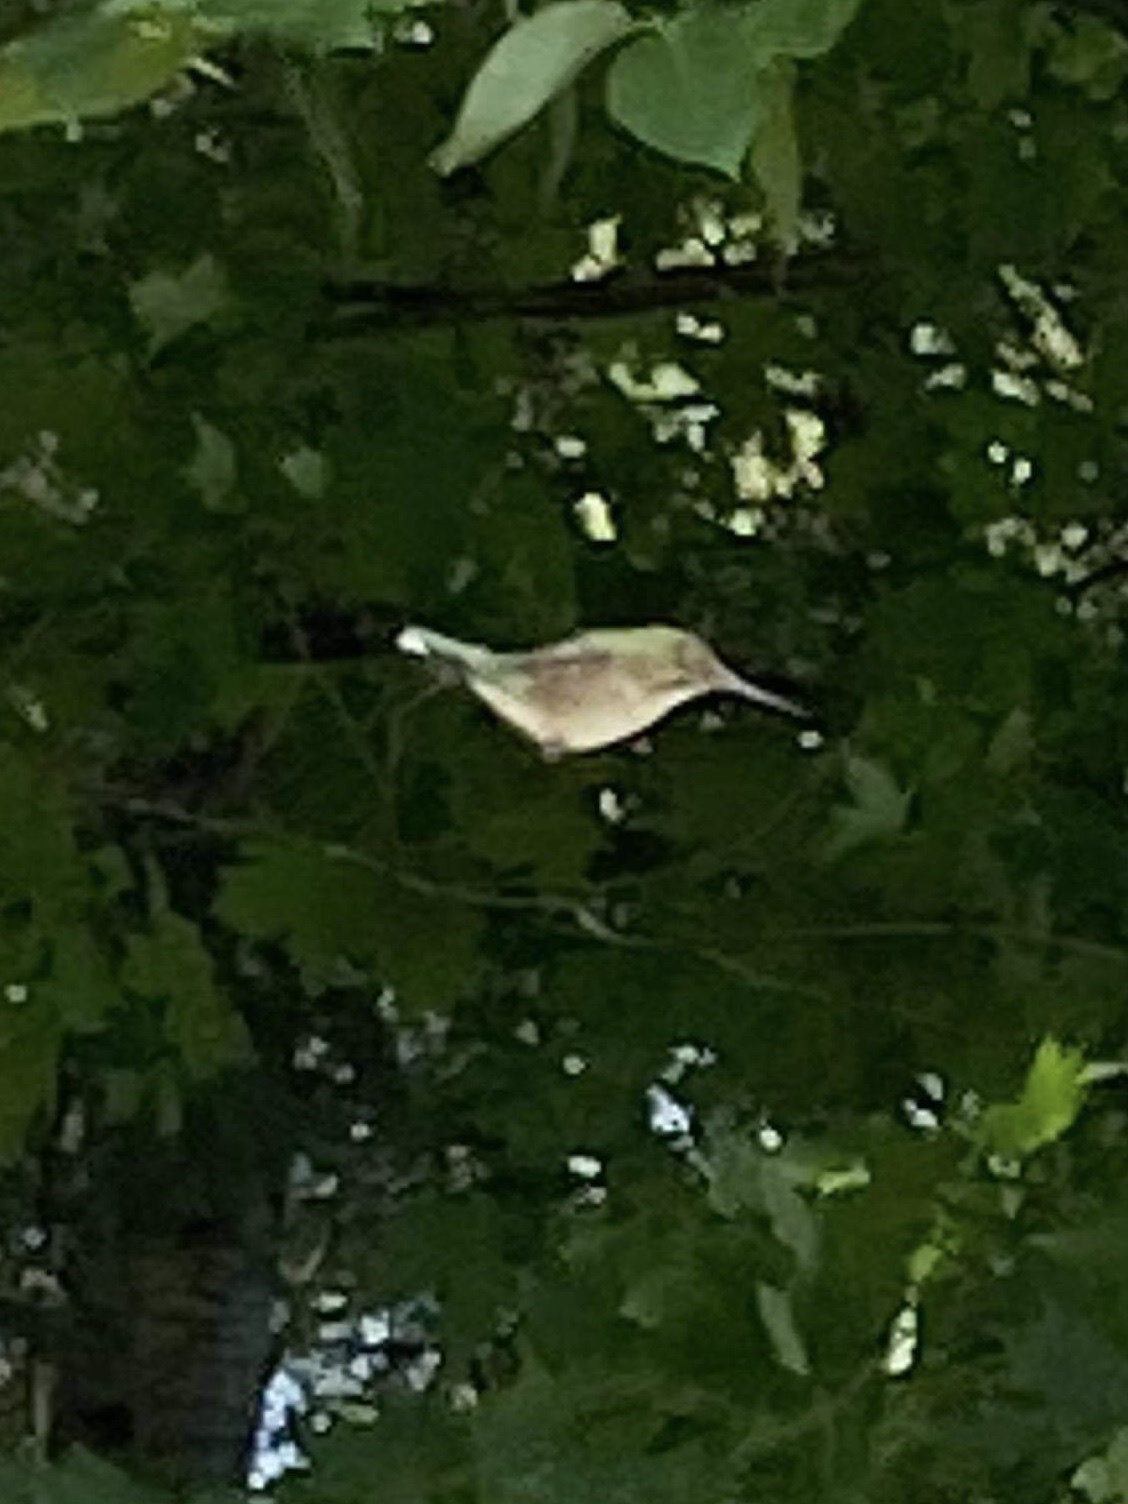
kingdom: Animalia
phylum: Chordata
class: Aves
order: Apodiformes
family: Trochilidae
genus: Archilochus
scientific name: Archilochus colubris
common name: Ruby-throated hummingbird
